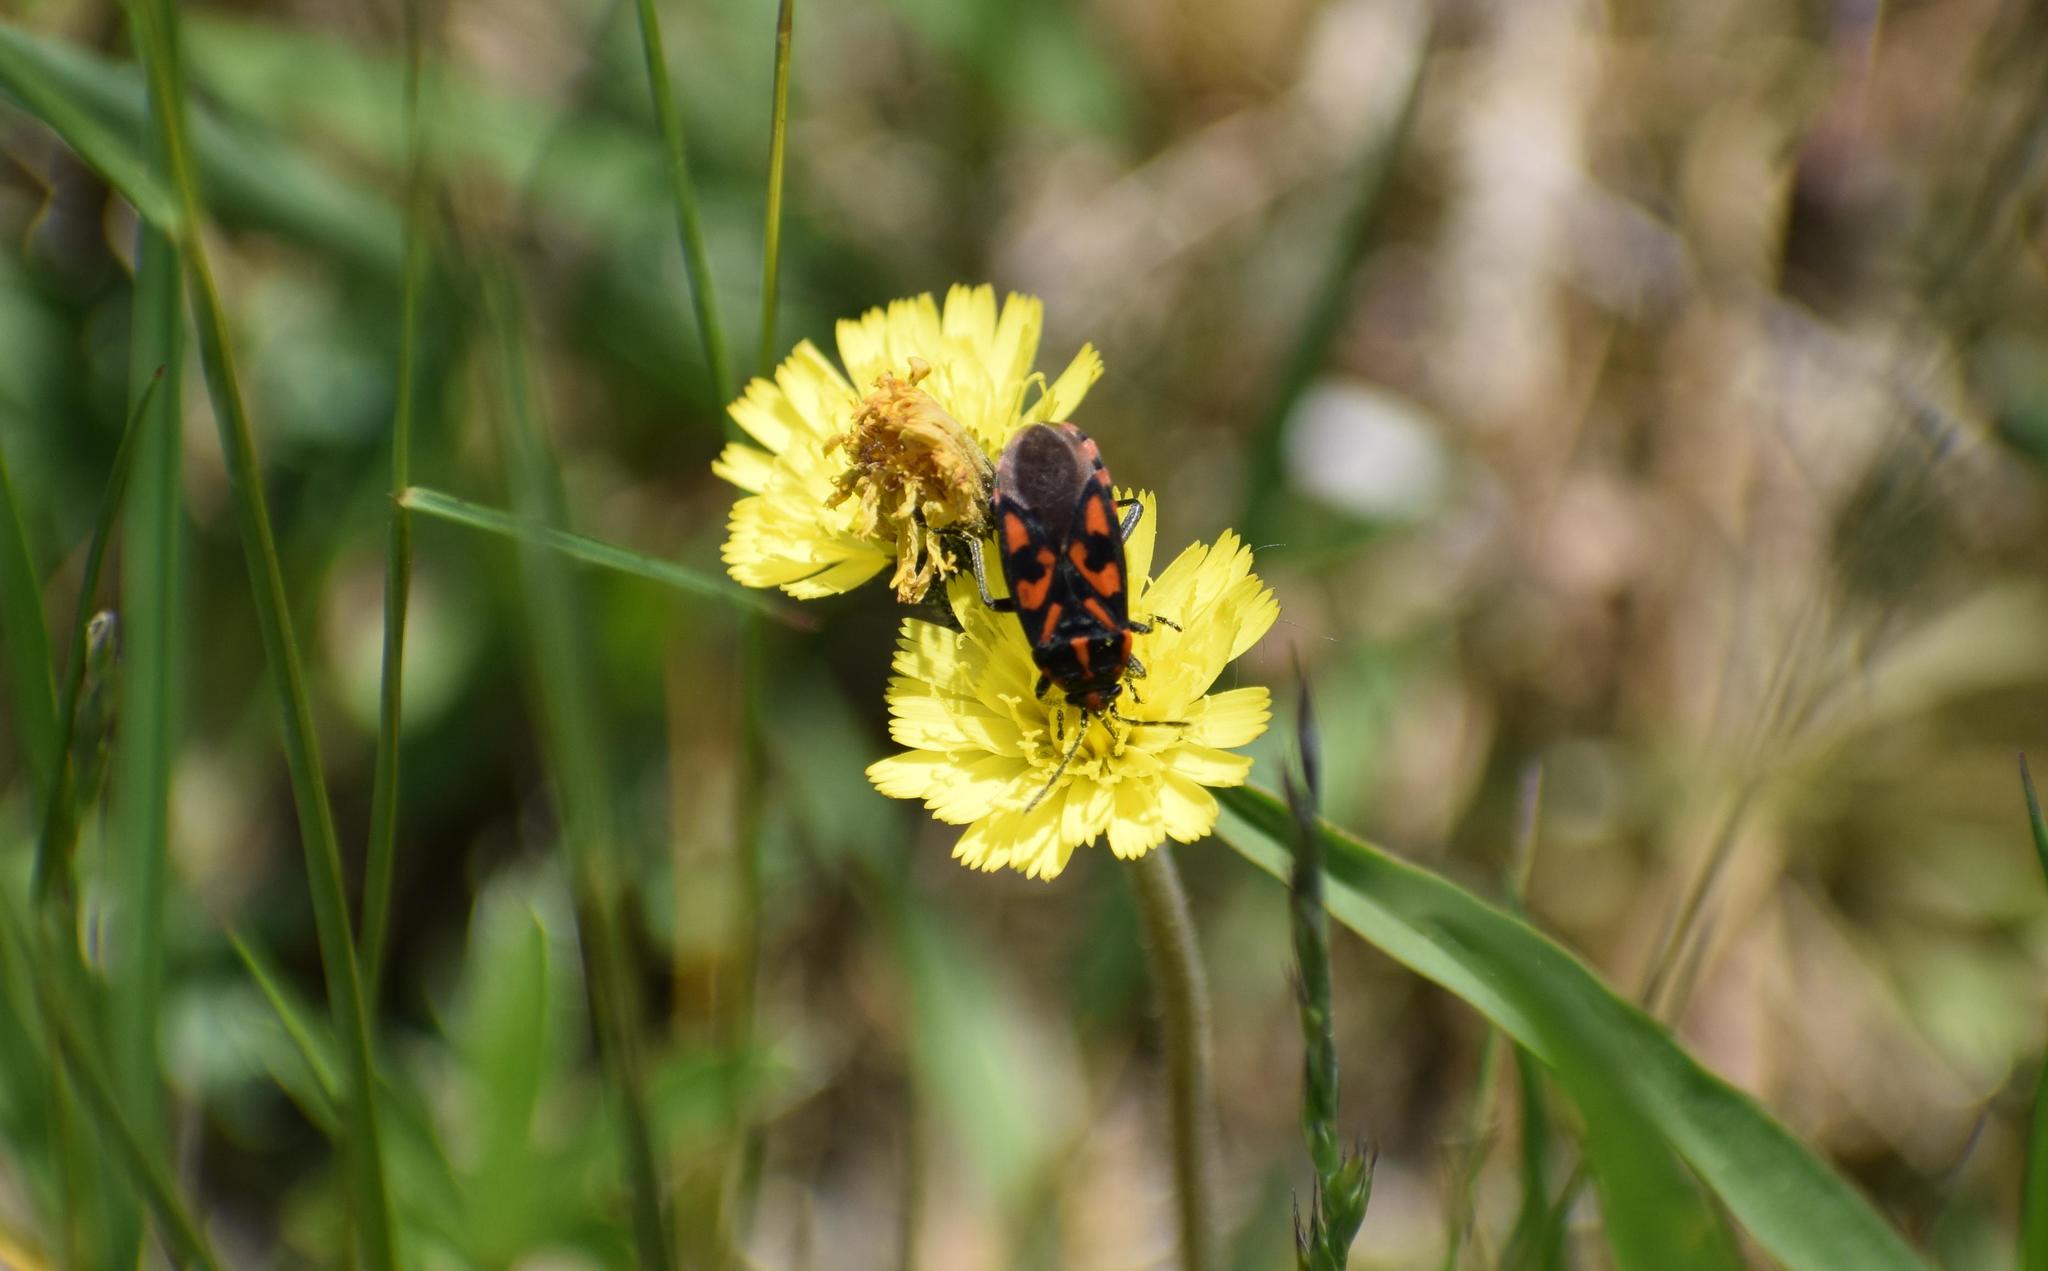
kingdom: Animalia
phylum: Arthropoda
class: Insecta
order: Hemiptera
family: Lygaeidae
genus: Spilostethus
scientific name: Spilostethus saxatilis
